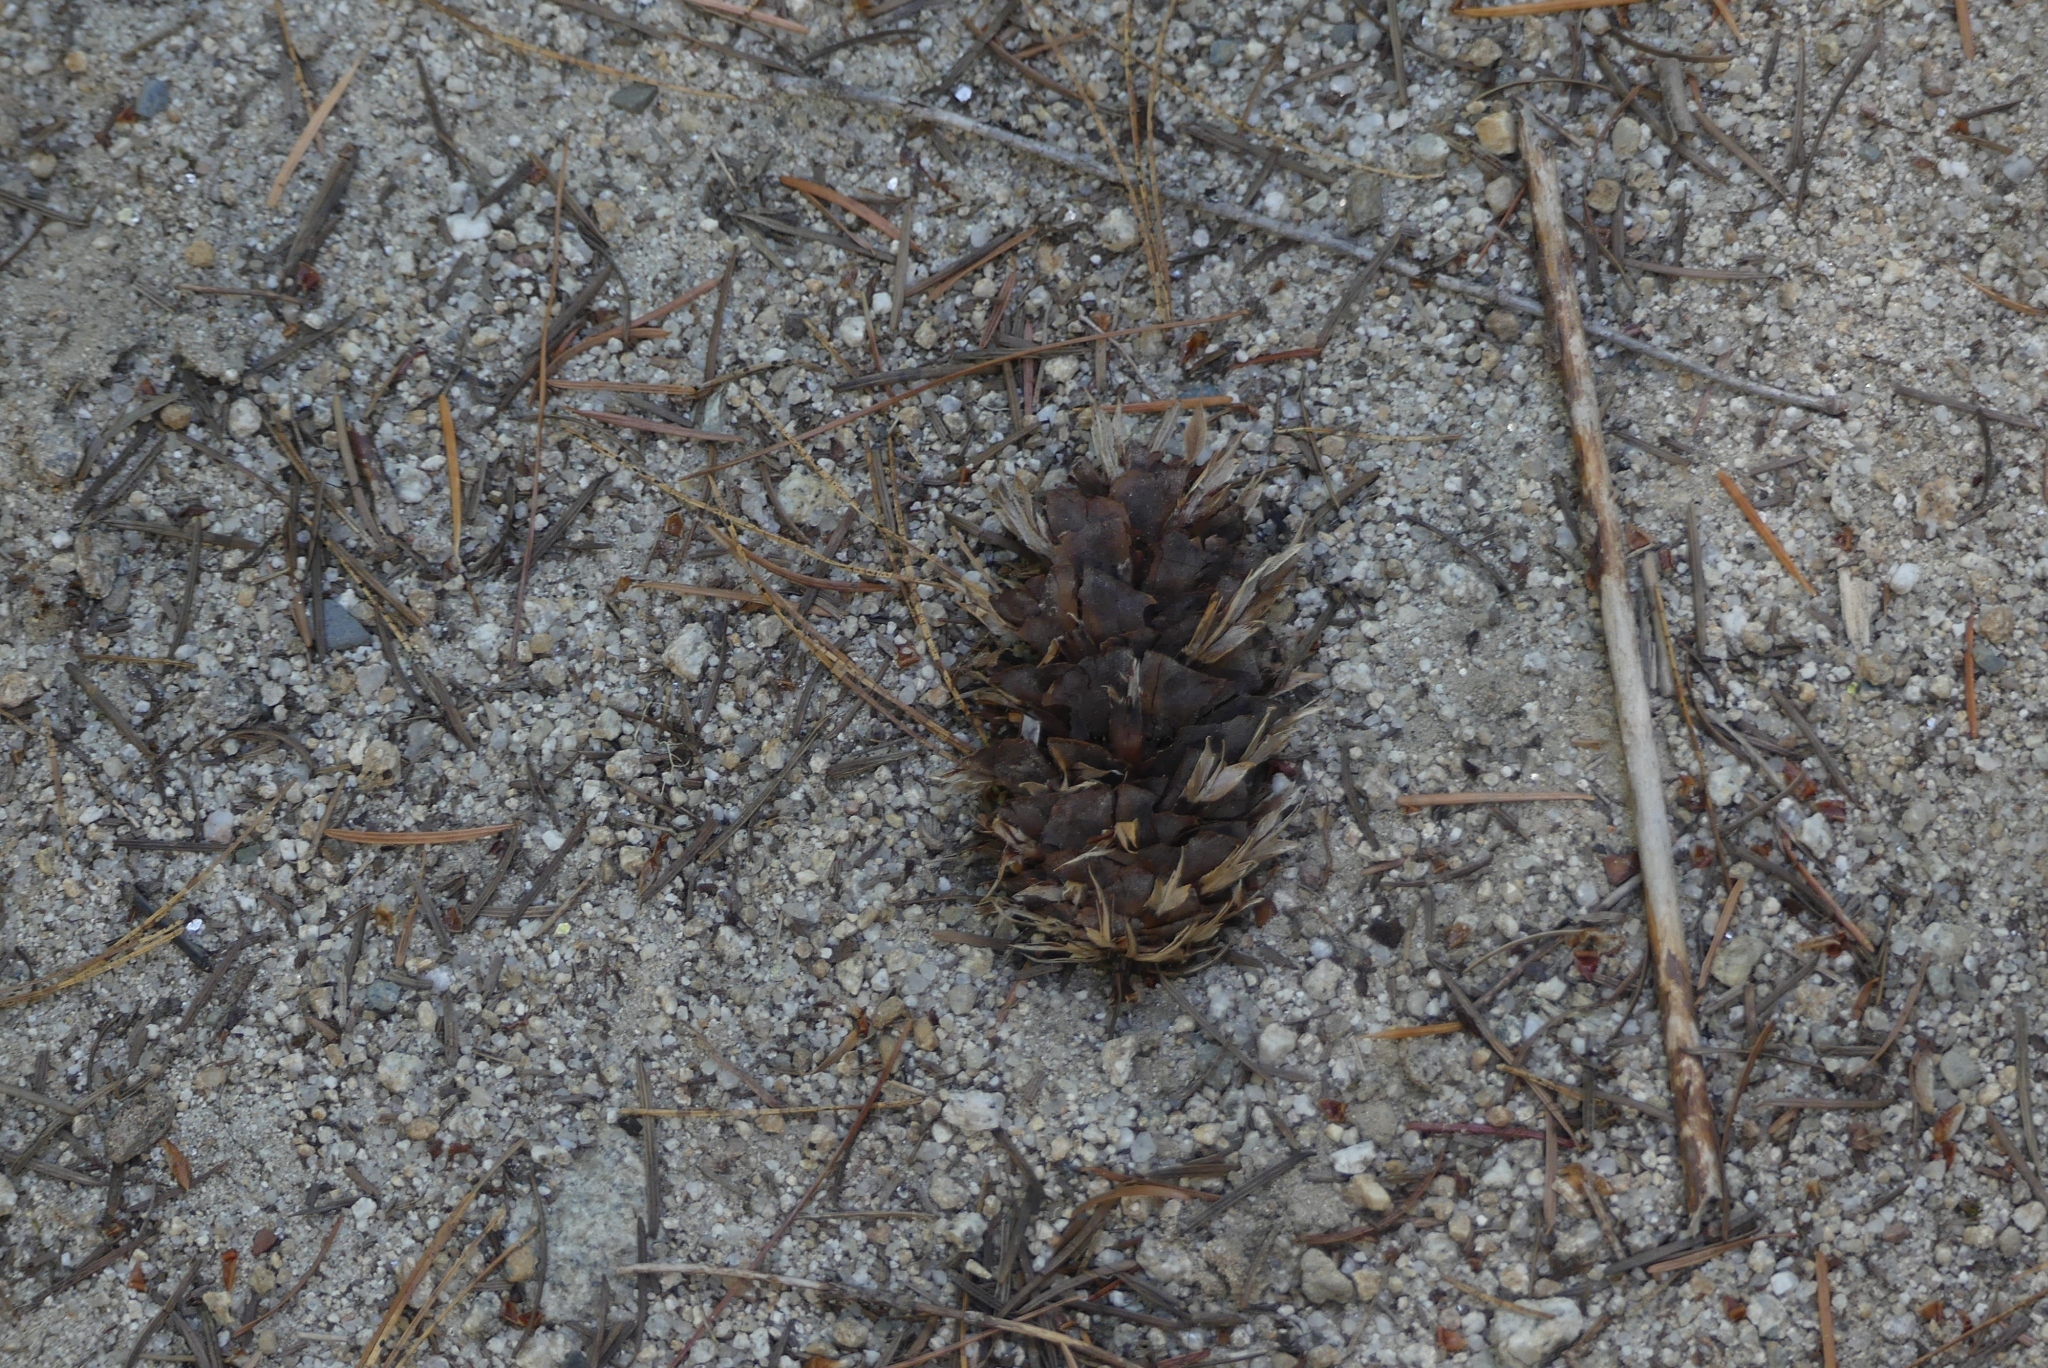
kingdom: Plantae
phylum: Tracheophyta
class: Pinopsida
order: Pinales
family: Pinaceae
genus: Pseudotsuga
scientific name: Pseudotsuga menziesii
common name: Douglas fir
